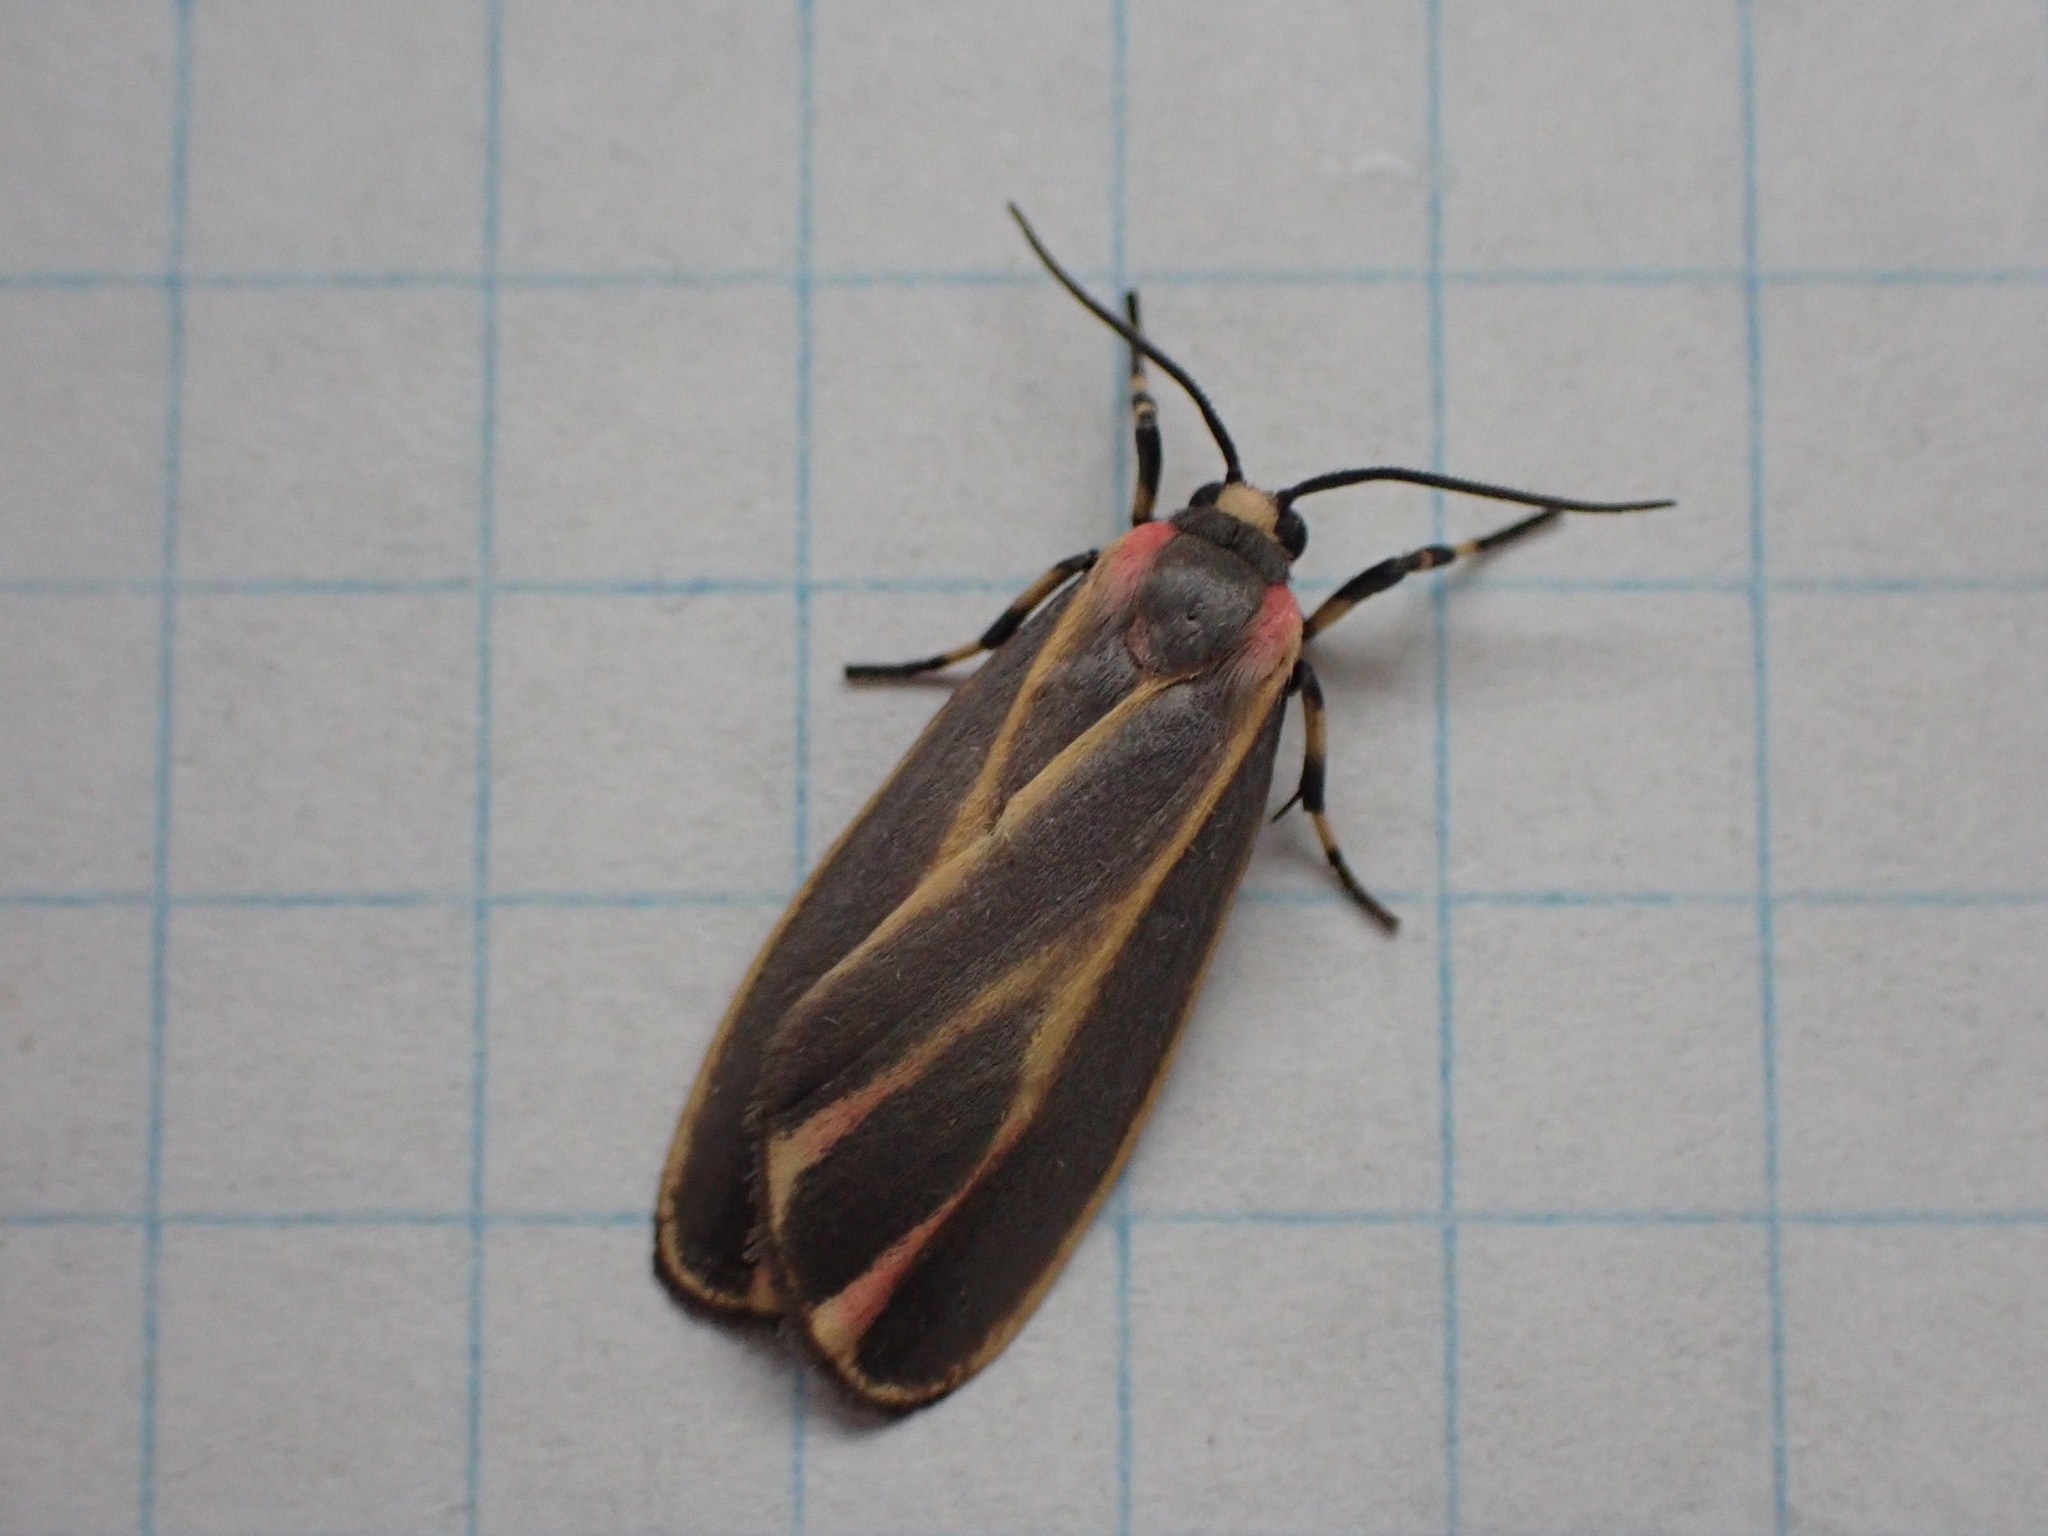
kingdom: Animalia
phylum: Arthropoda
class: Insecta
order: Lepidoptera
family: Erebidae
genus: Hypoprepia
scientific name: Hypoprepia fucosa
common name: Painted lichen moth
